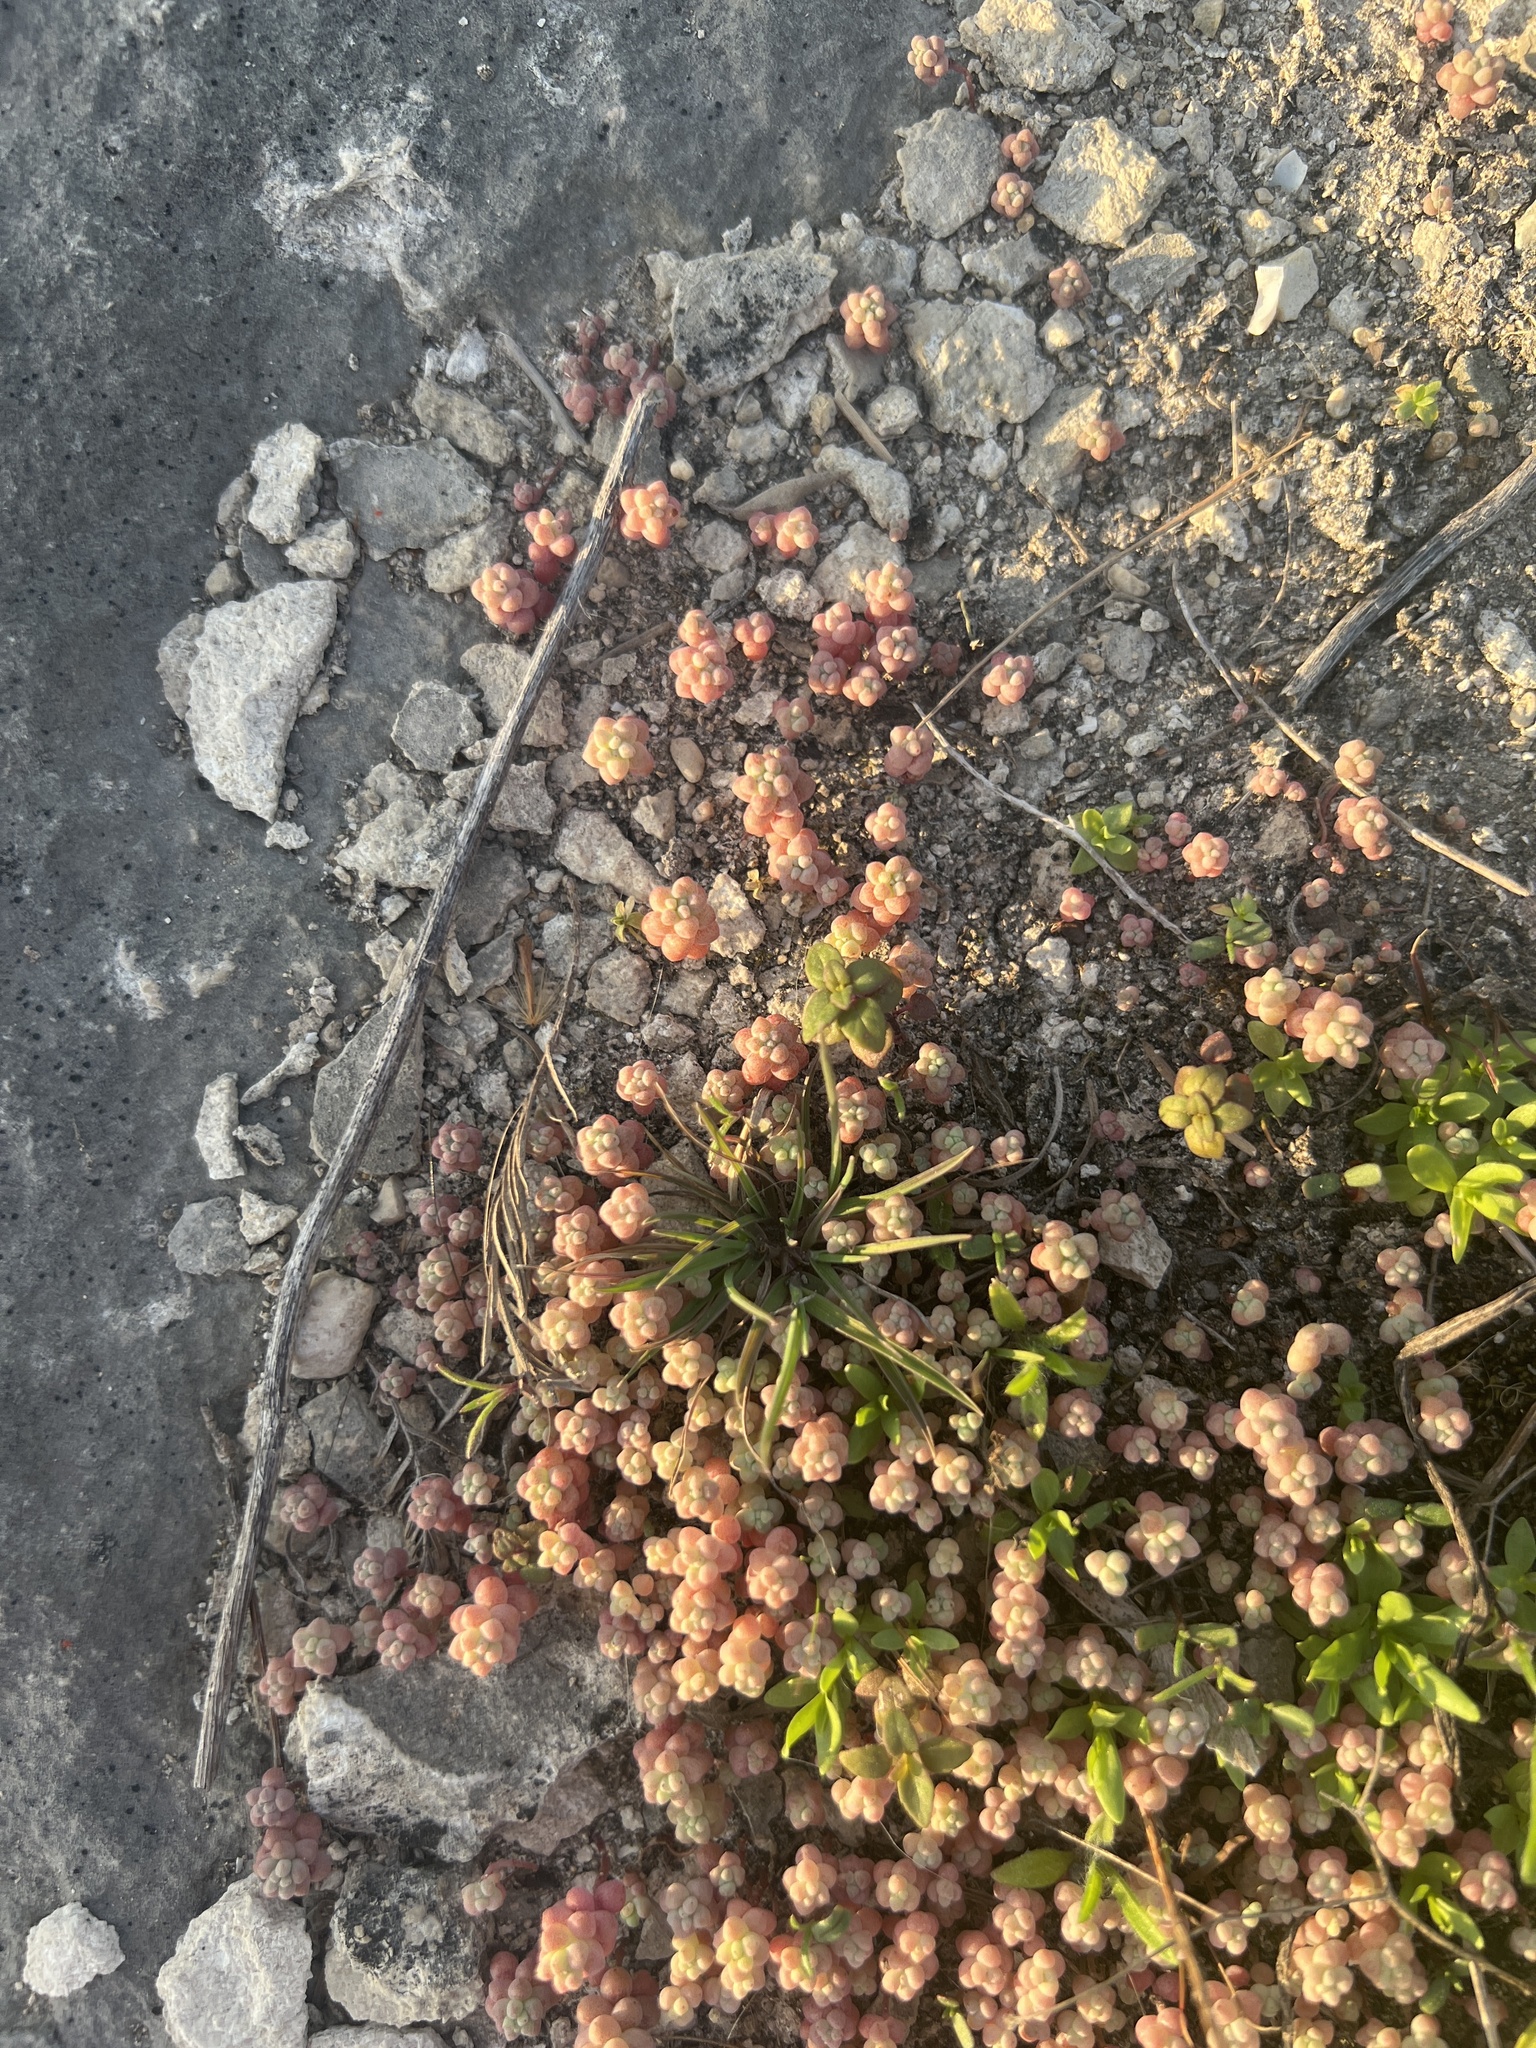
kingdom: Plantae
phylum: Tracheophyta
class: Magnoliopsida
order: Saxifragales
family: Crassulaceae
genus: Sedum
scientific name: Sedum nuttallii
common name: Yellow stonecrop
